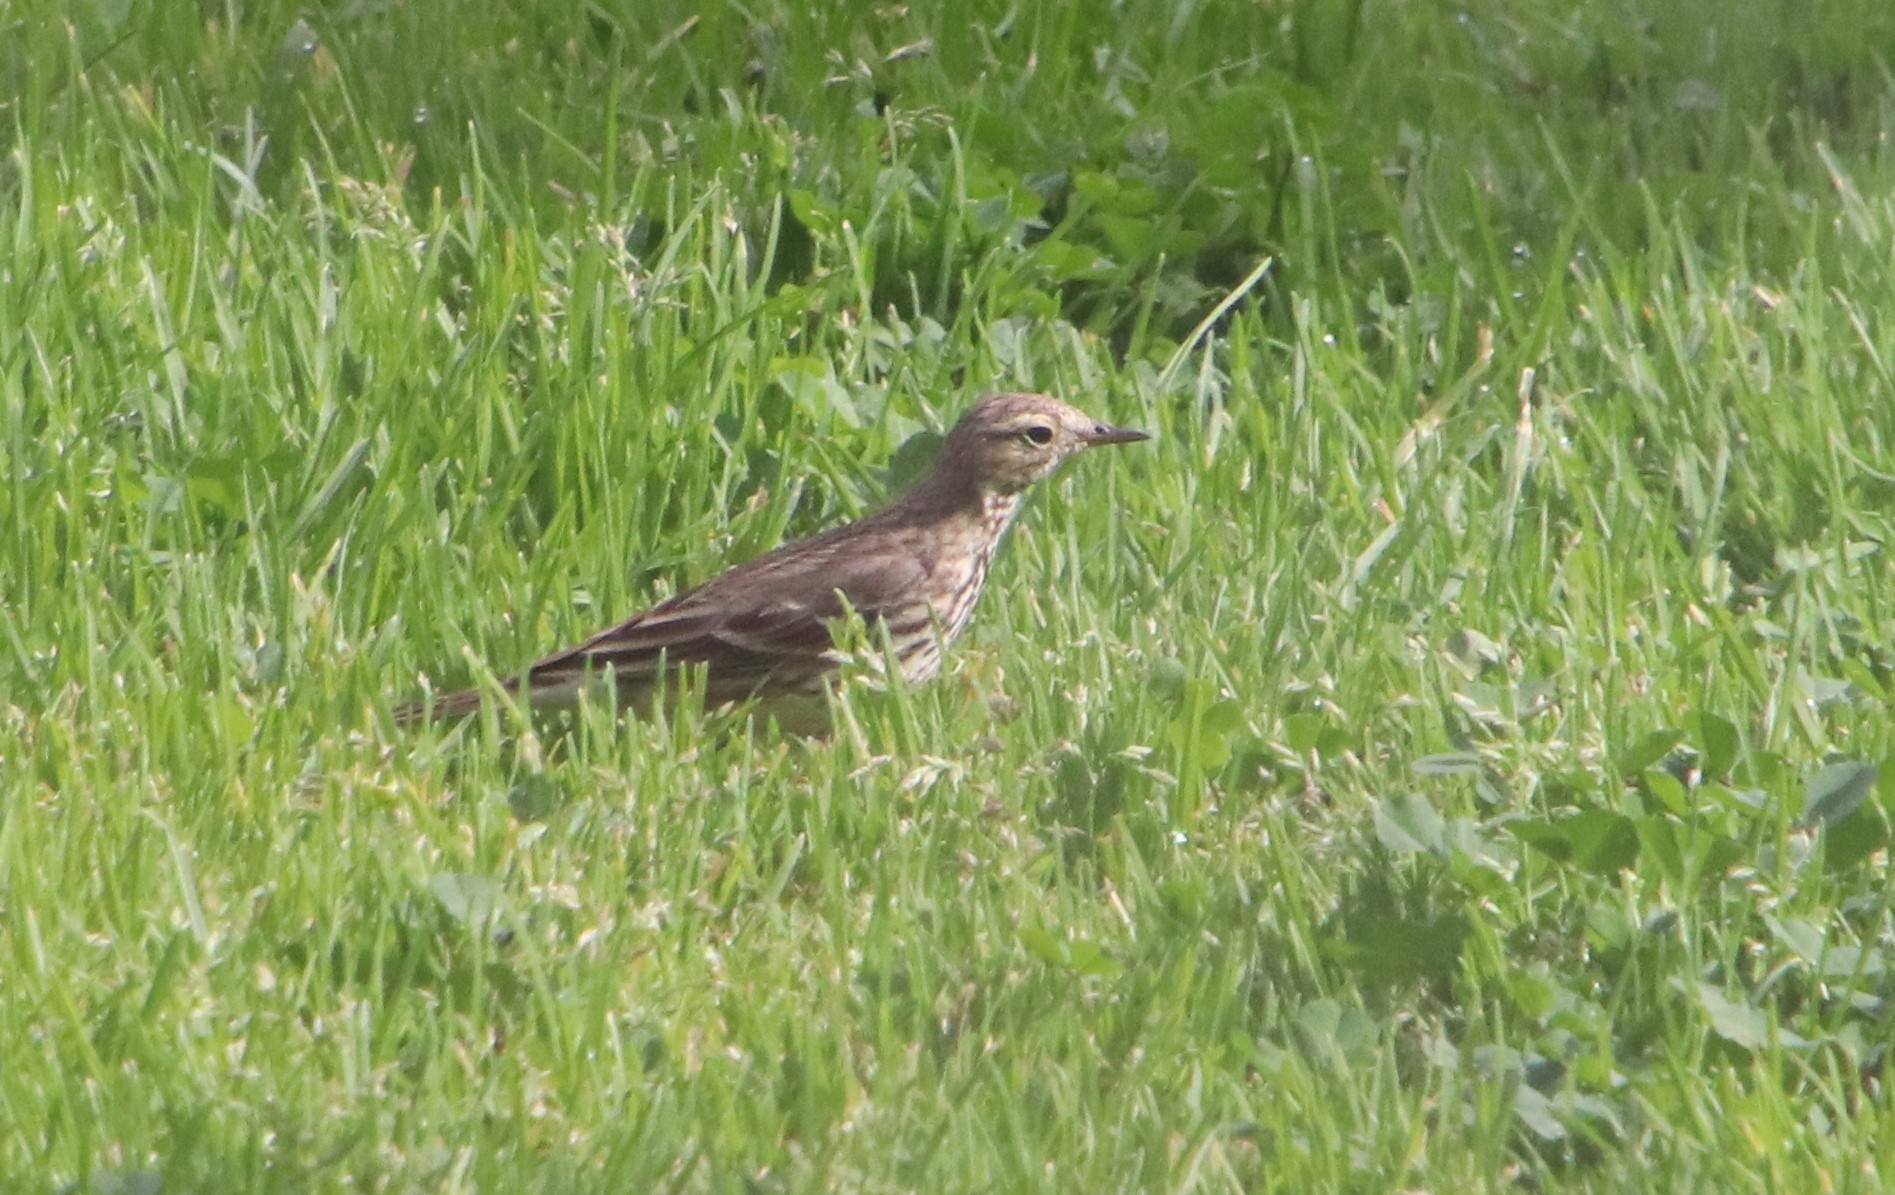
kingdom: Animalia
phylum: Chordata
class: Aves
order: Passeriformes
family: Motacillidae
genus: Anthus
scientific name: Anthus rubescens
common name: Buff-bellied pipit
